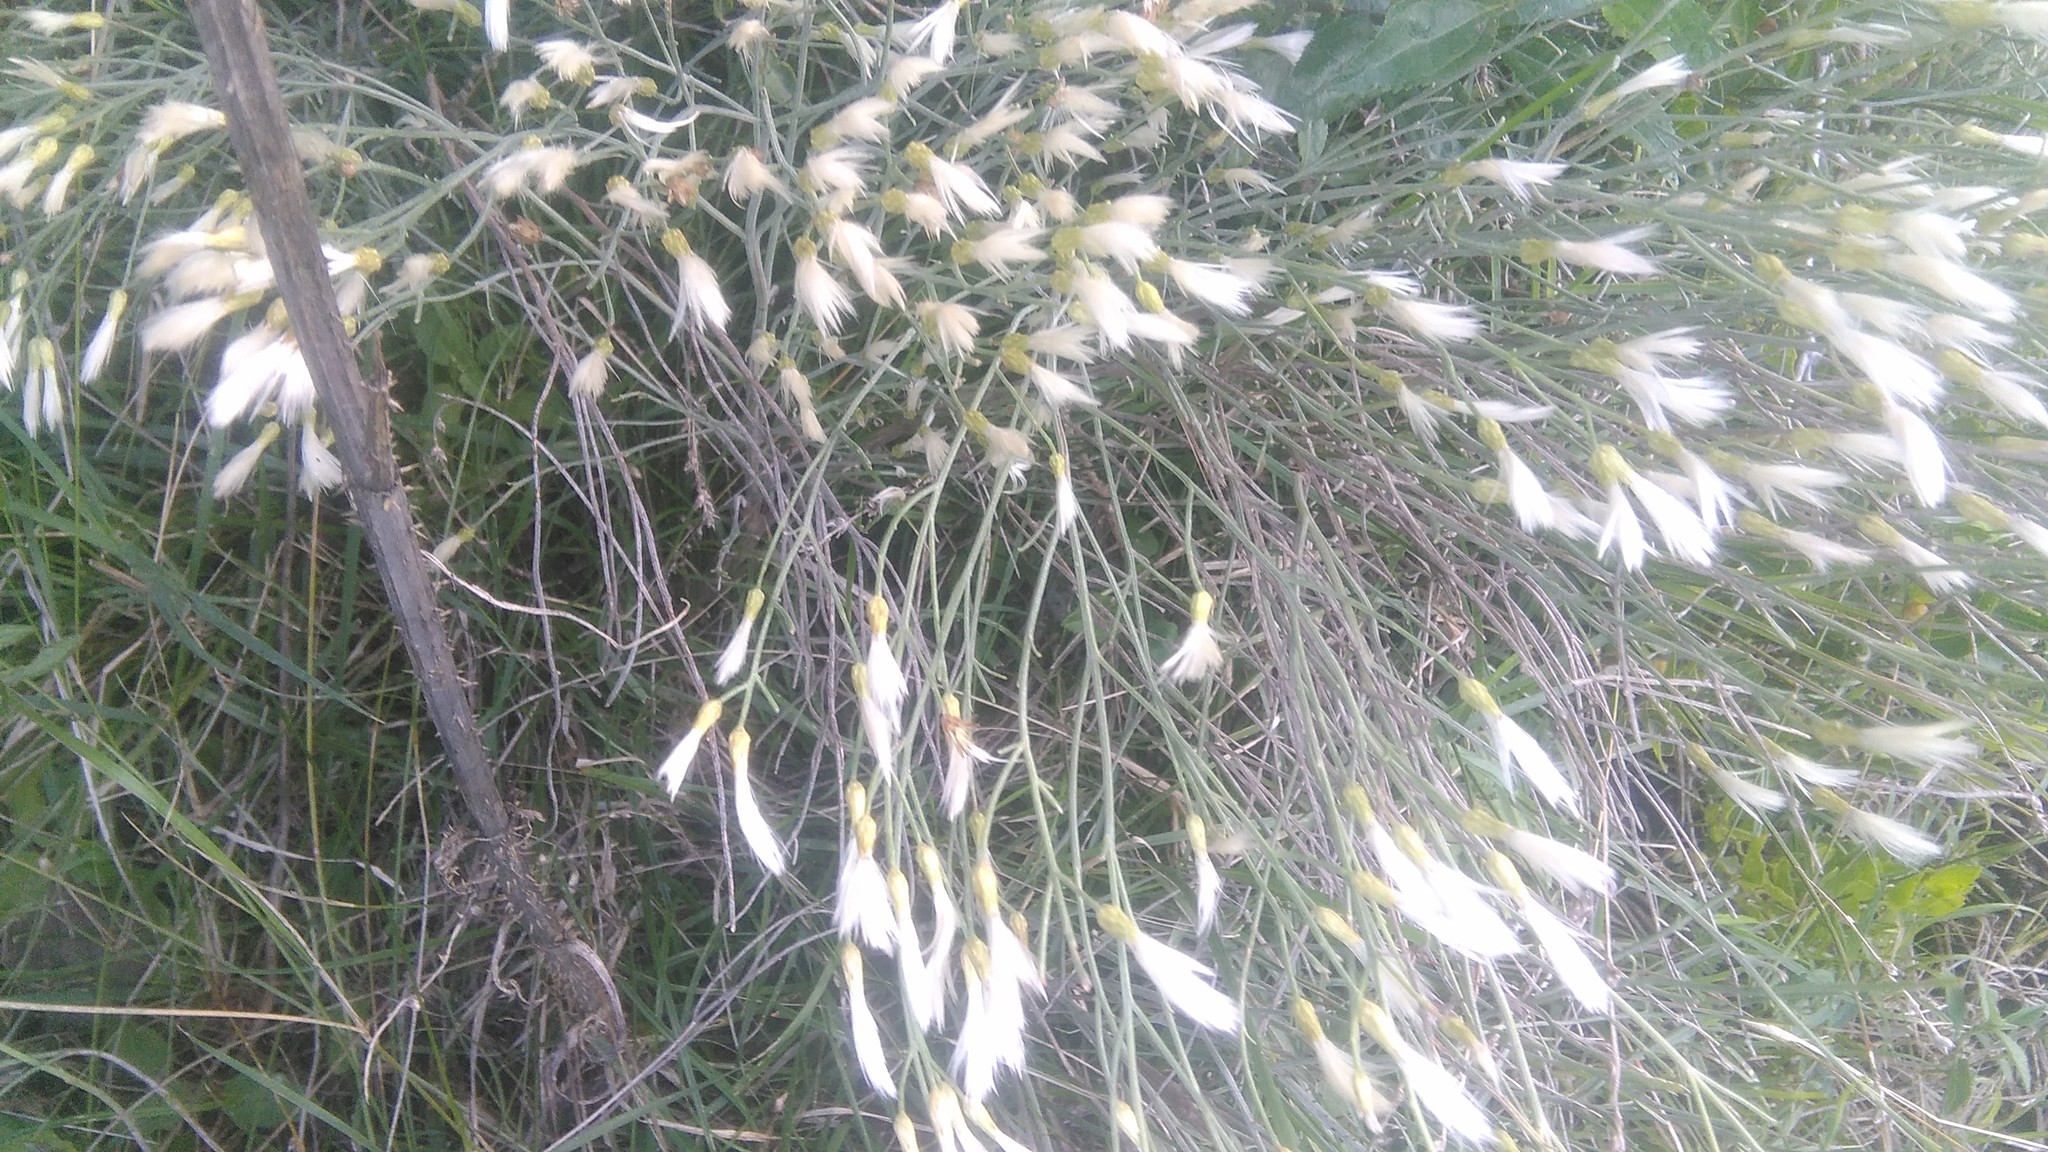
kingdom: Plantae
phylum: Tracheophyta
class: Magnoliopsida
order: Asterales
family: Asteraceae
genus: Baccharis
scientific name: Baccharis notosergila
